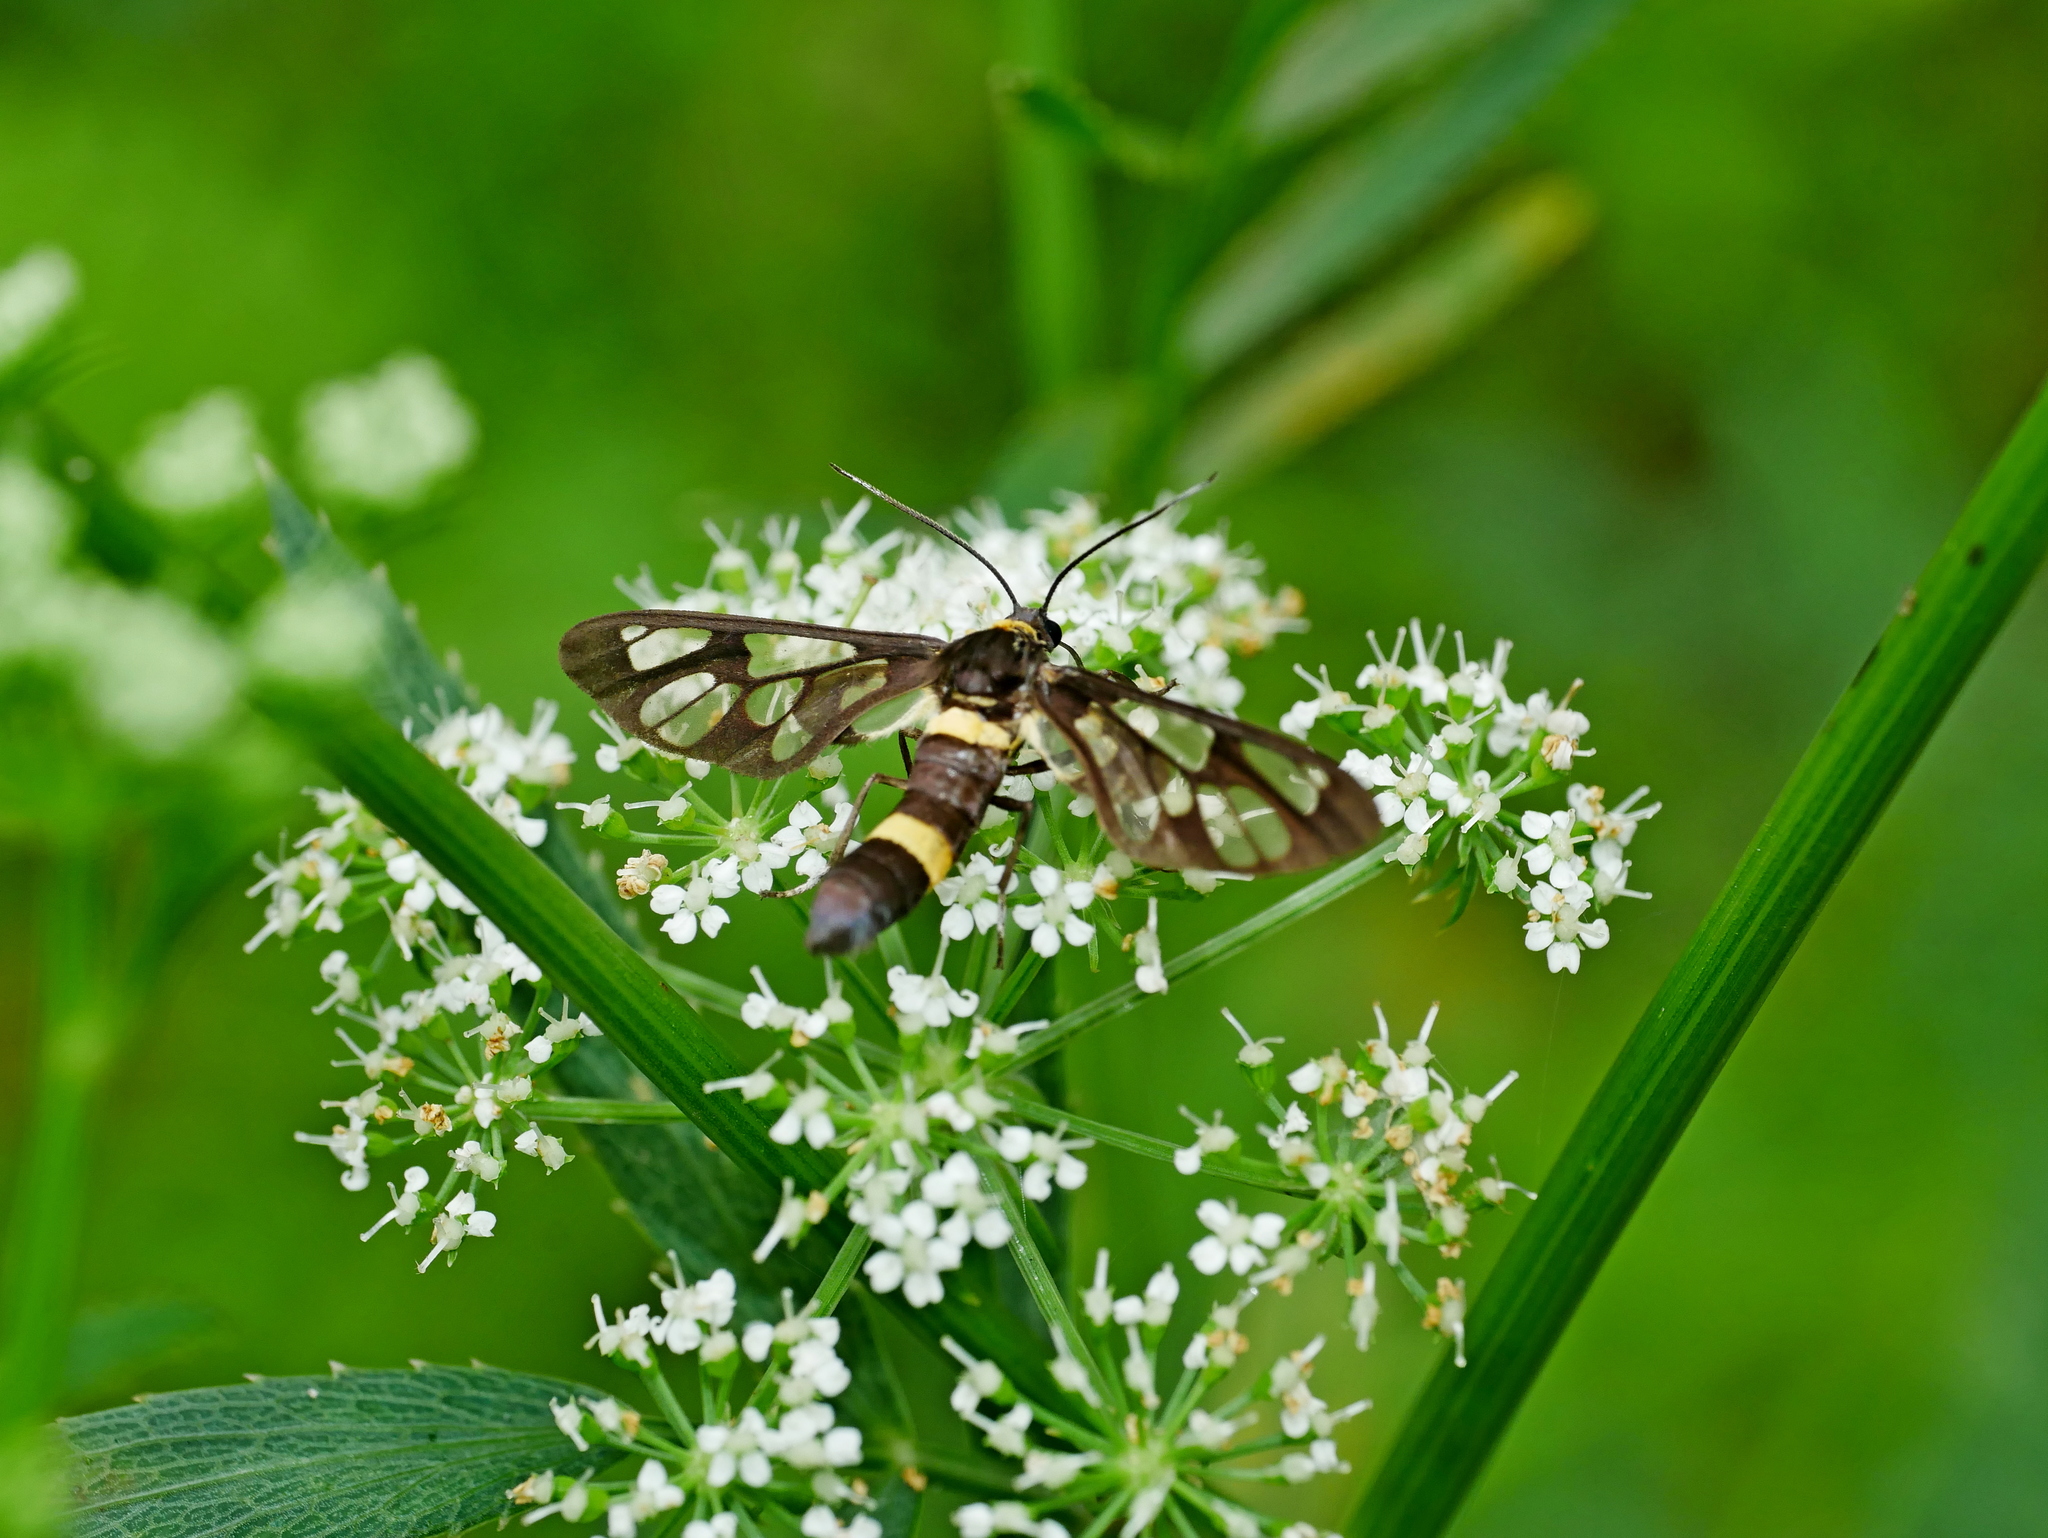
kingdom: Animalia
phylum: Arthropoda
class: Insecta
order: Lepidoptera
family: Erebidae
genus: Syntomoides
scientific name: Syntomoides imaon
